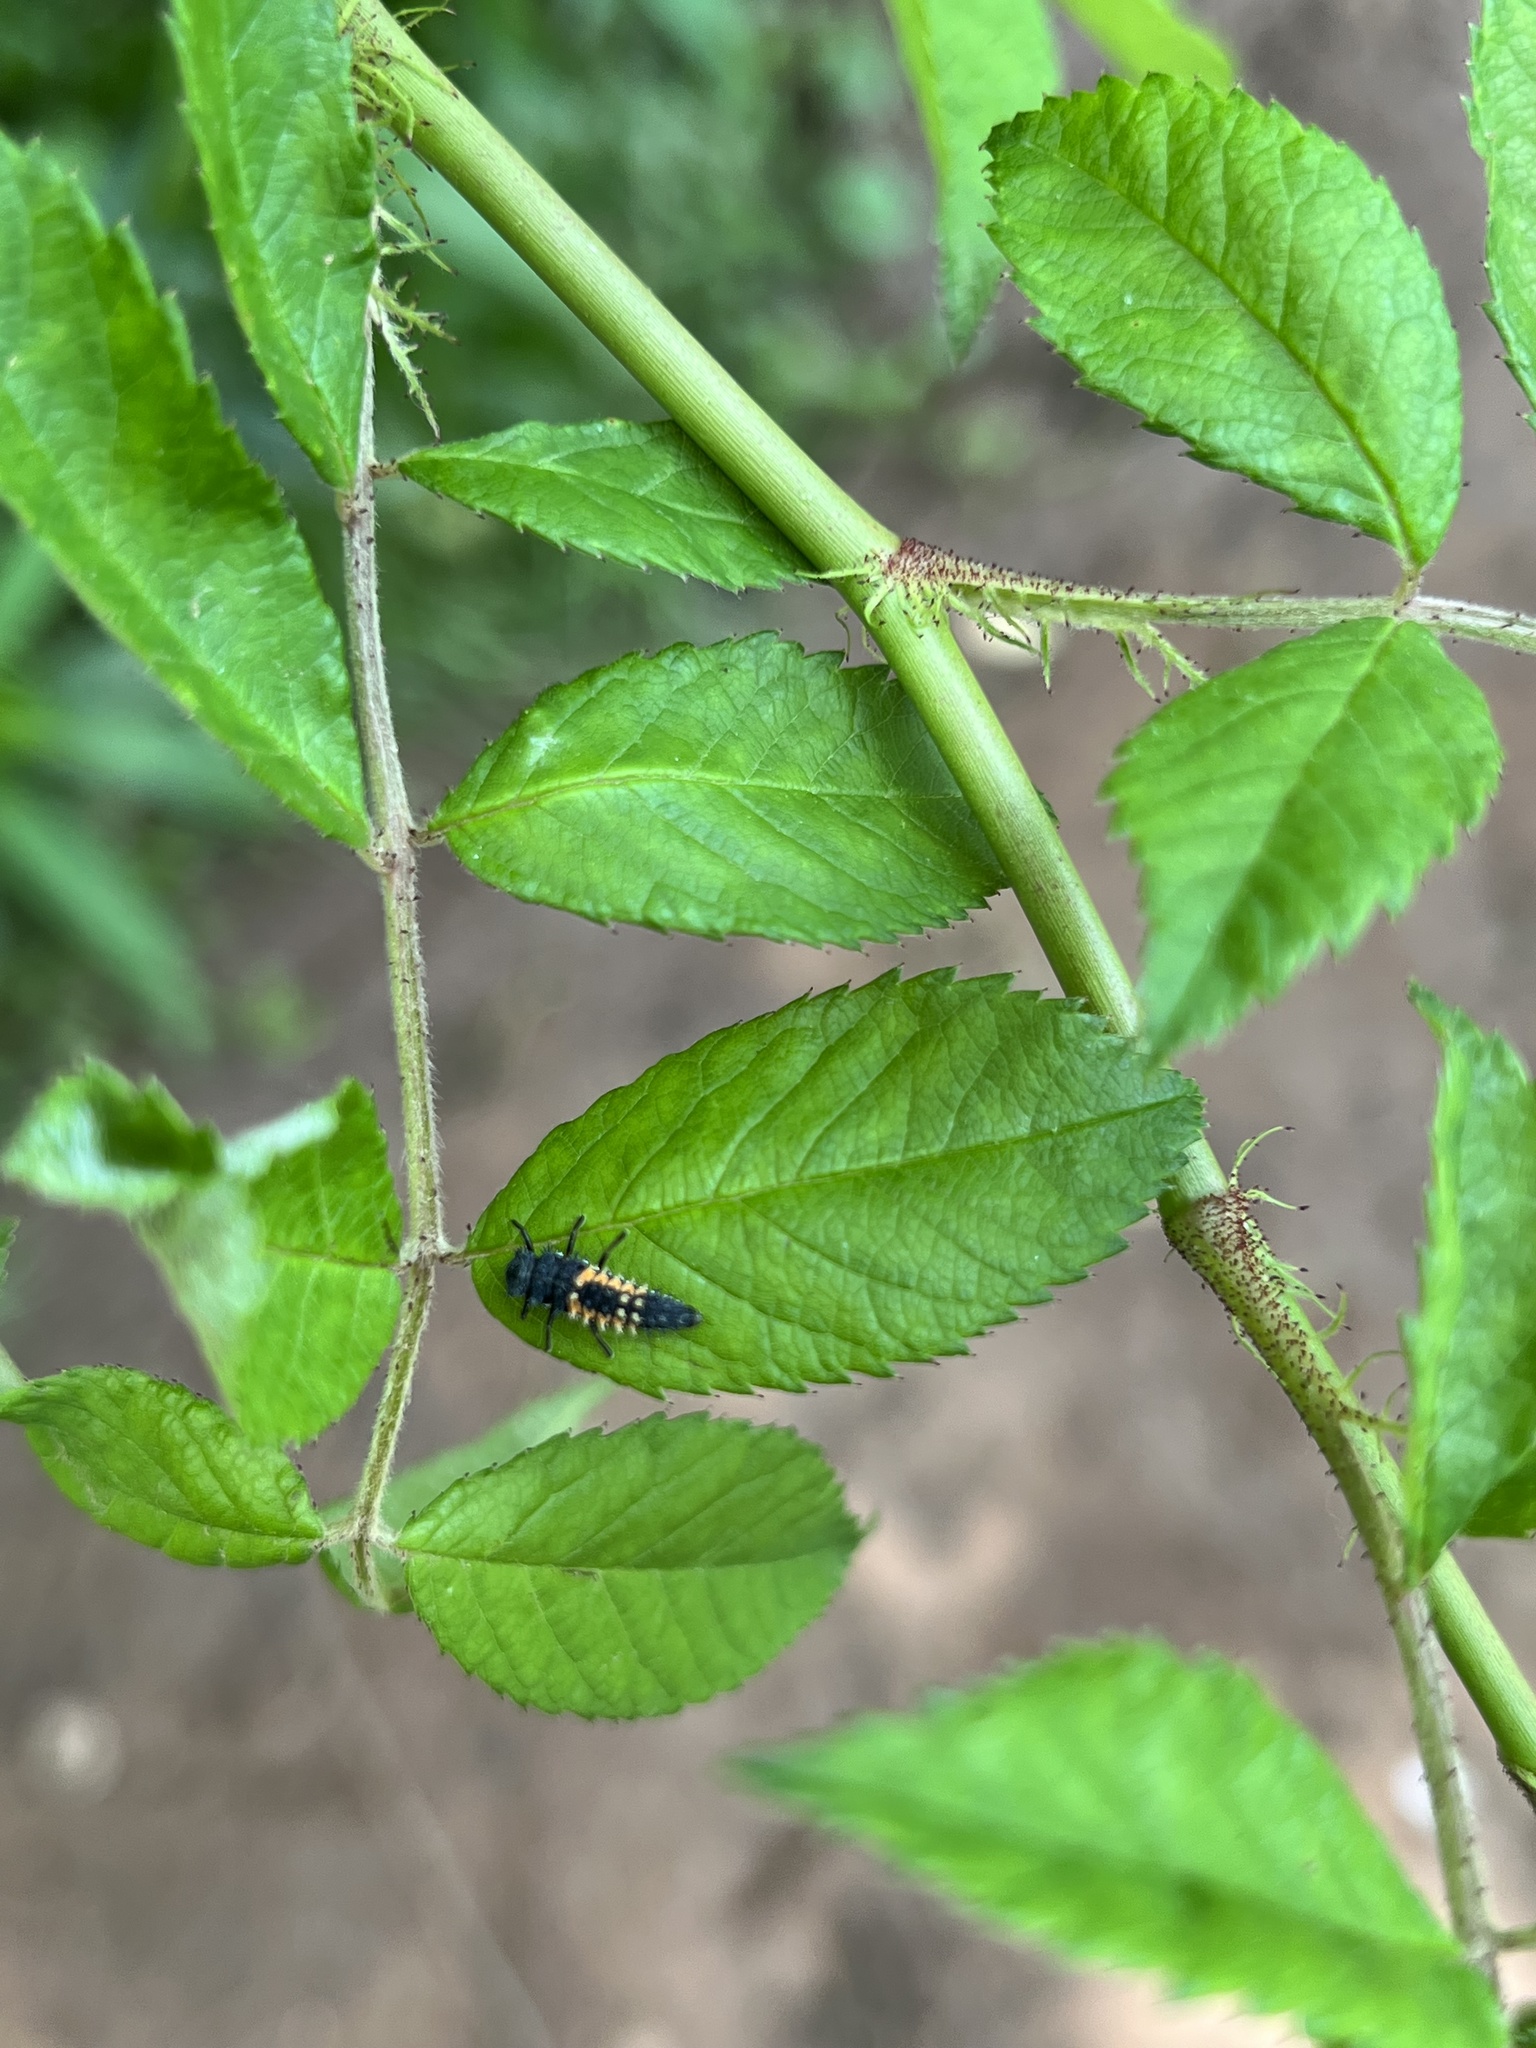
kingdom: Animalia
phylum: Arthropoda
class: Insecta
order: Coleoptera
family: Coccinellidae
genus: Harmonia
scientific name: Harmonia axyridis
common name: Harlequin ladybird
